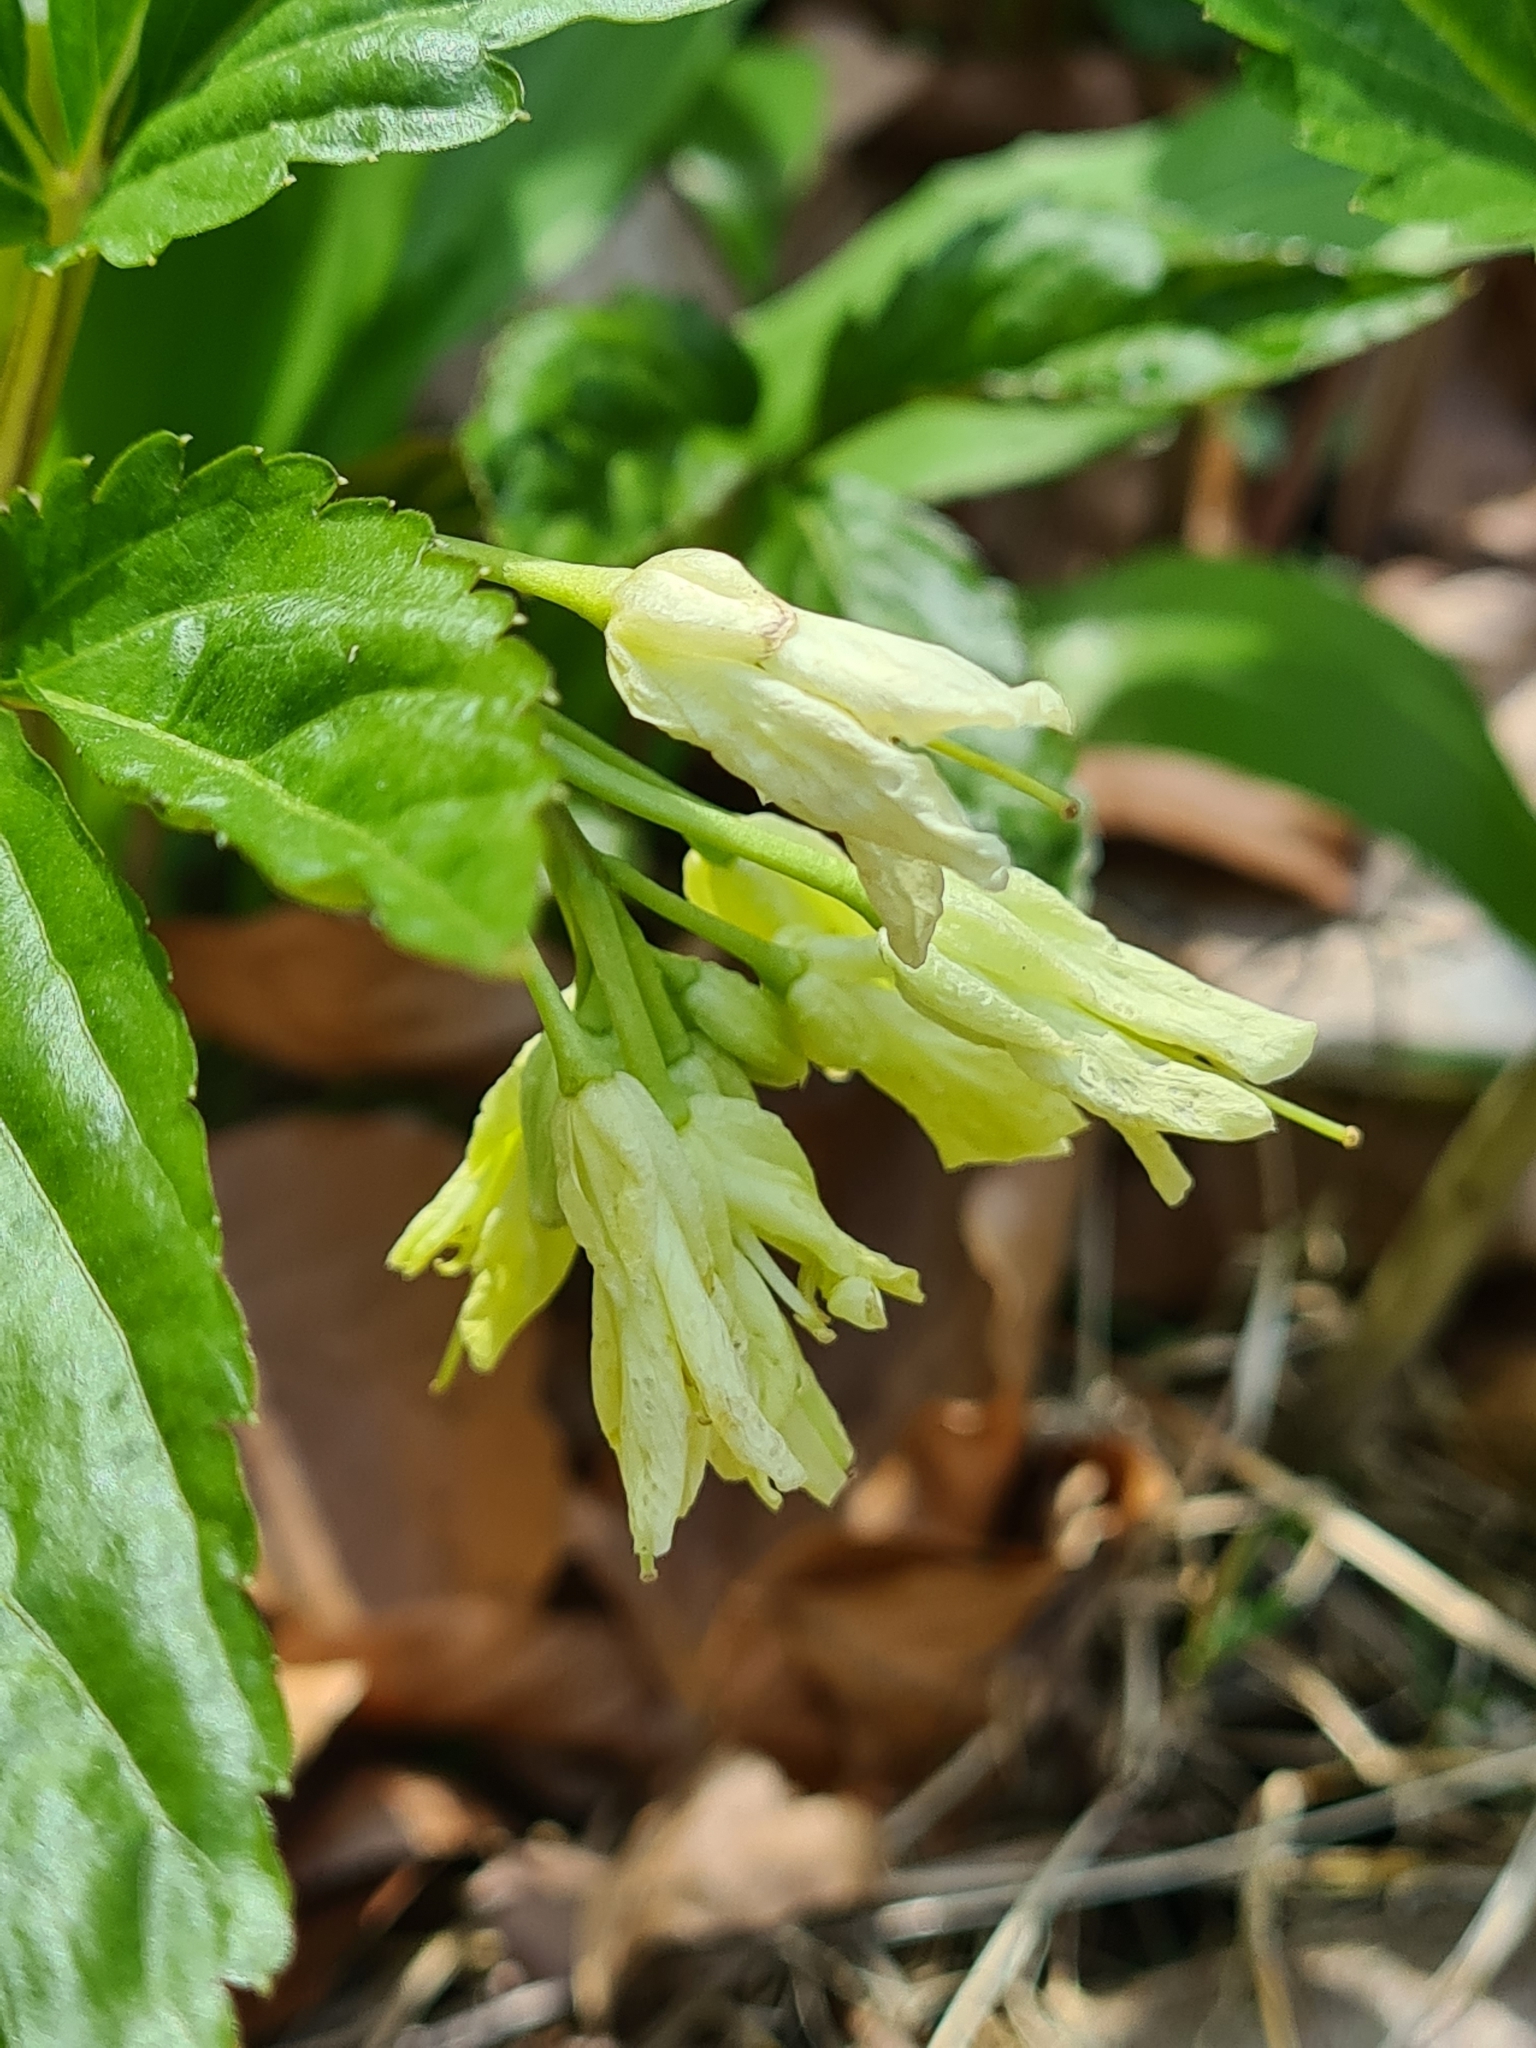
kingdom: Plantae
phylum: Tracheophyta
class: Magnoliopsida
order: Brassicales
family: Brassicaceae
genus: Cardamine
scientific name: Cardamine enneaphyllos
